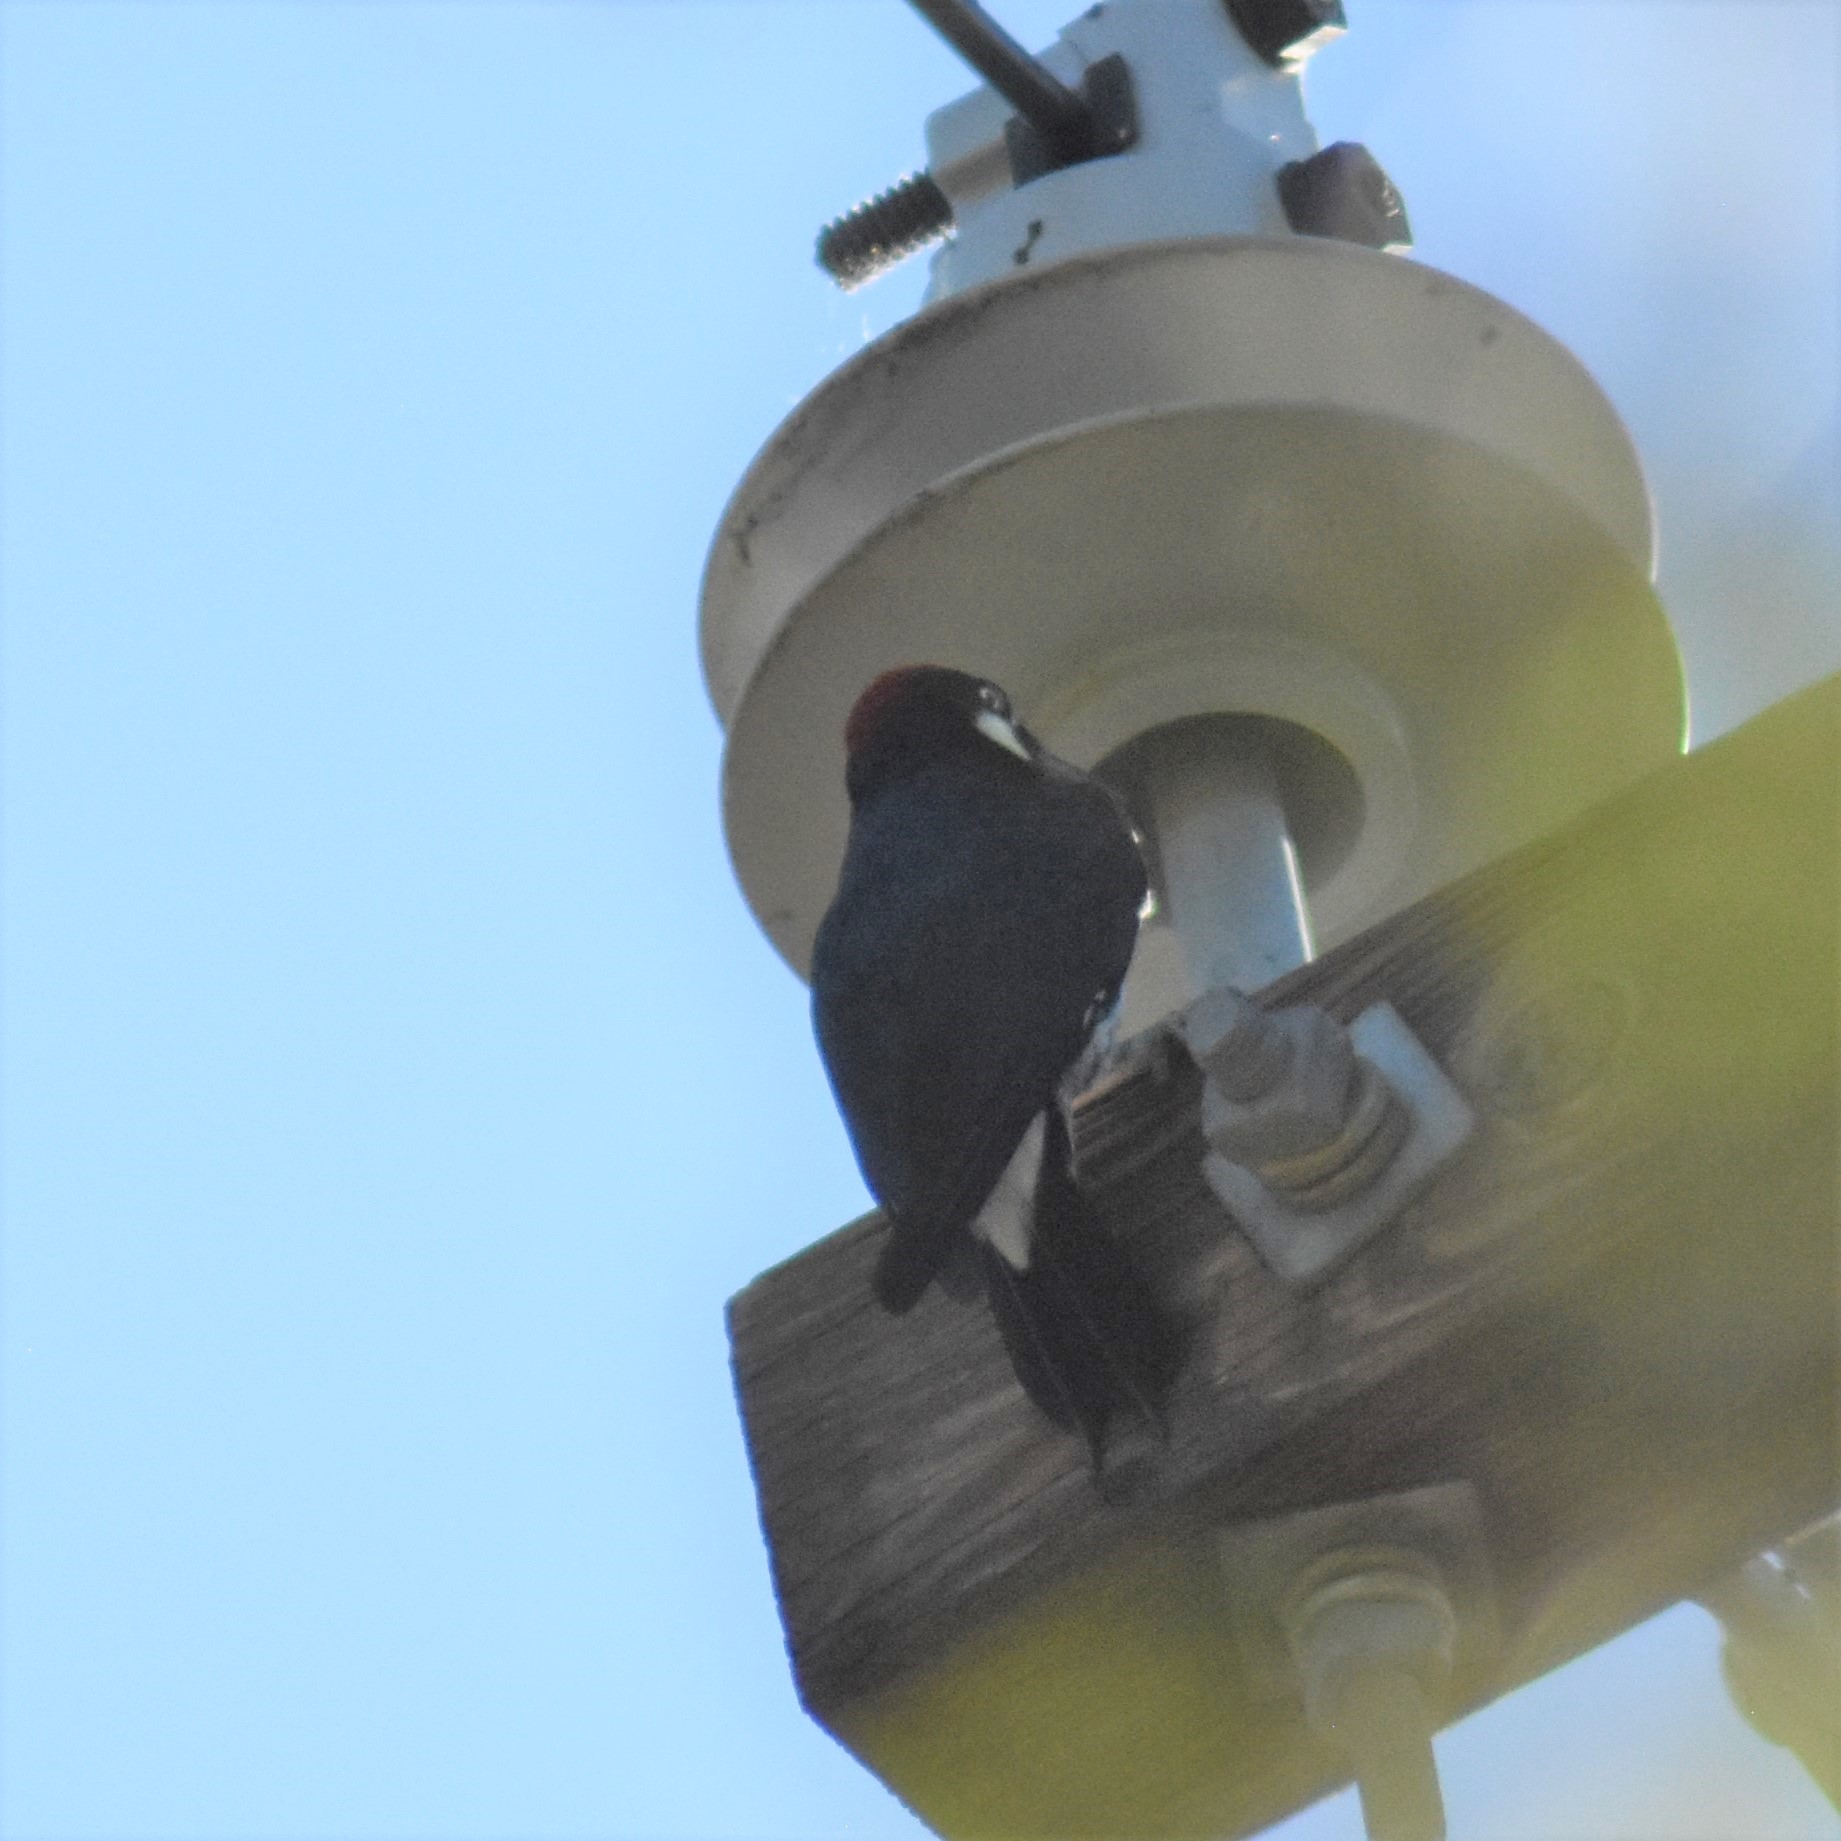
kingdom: Animalia
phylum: Chordata
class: Aves
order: Piciformes
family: Picidae
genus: Melanerpes
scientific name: Melanerpes formicivorus
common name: Acorn woodpecker
